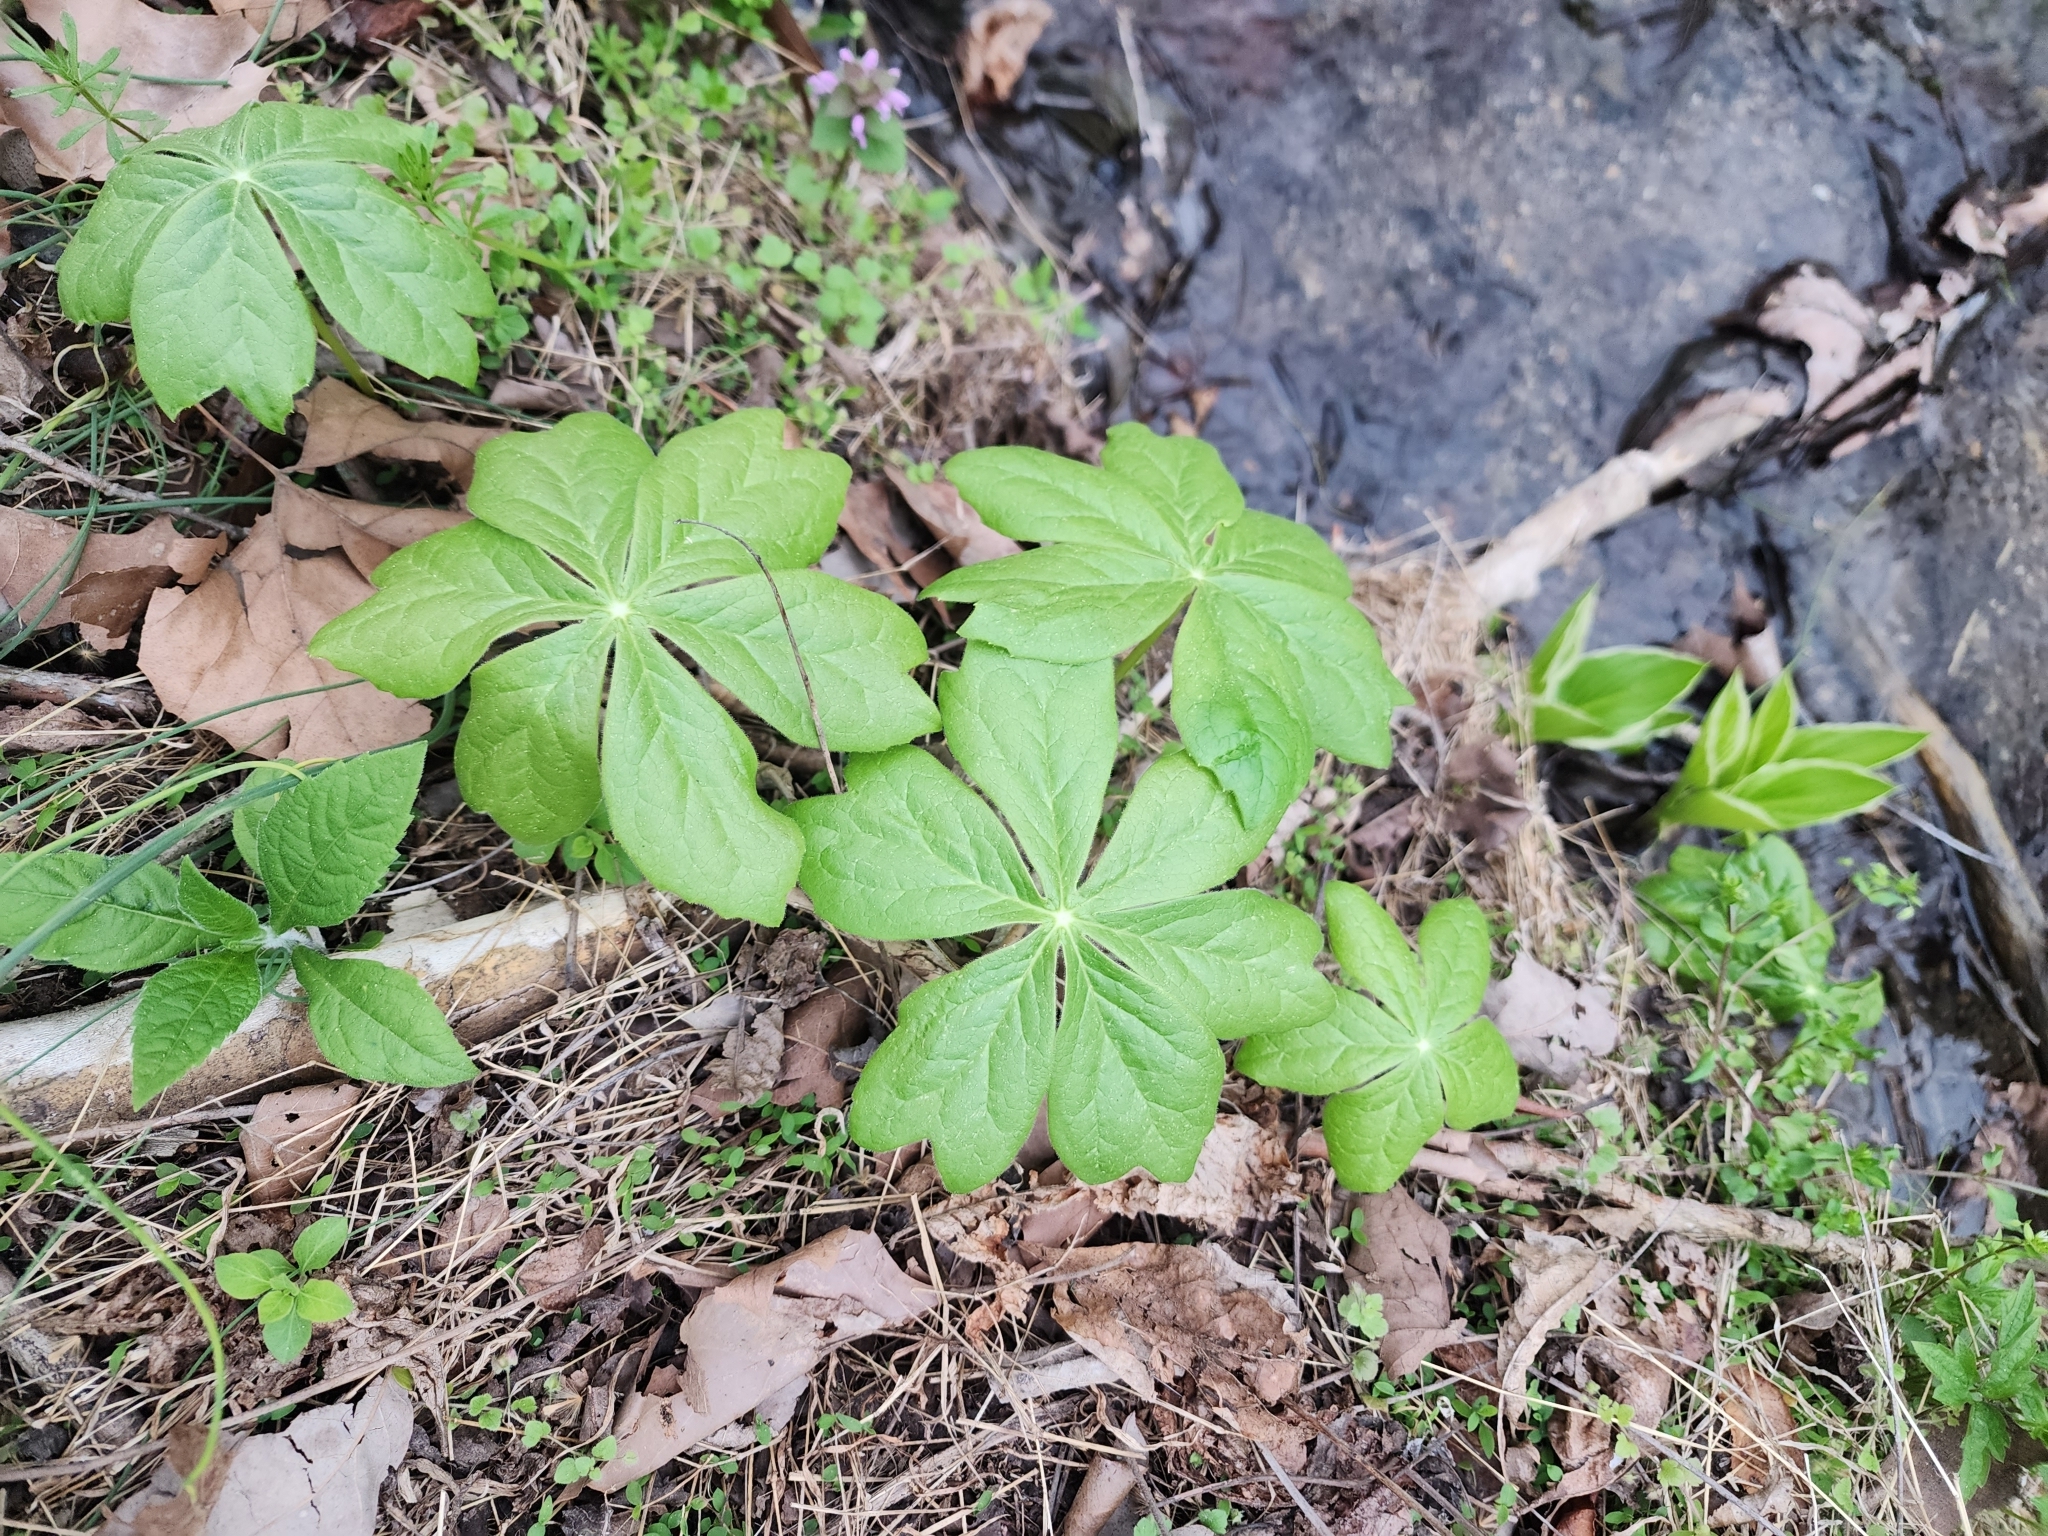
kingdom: Plantae
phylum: Tracheophyta
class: Magnoliopsida
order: Ranunculales
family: Berberidaceae
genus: Podophyllum
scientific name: Podophyllum peltatum
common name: Wild mandrake
